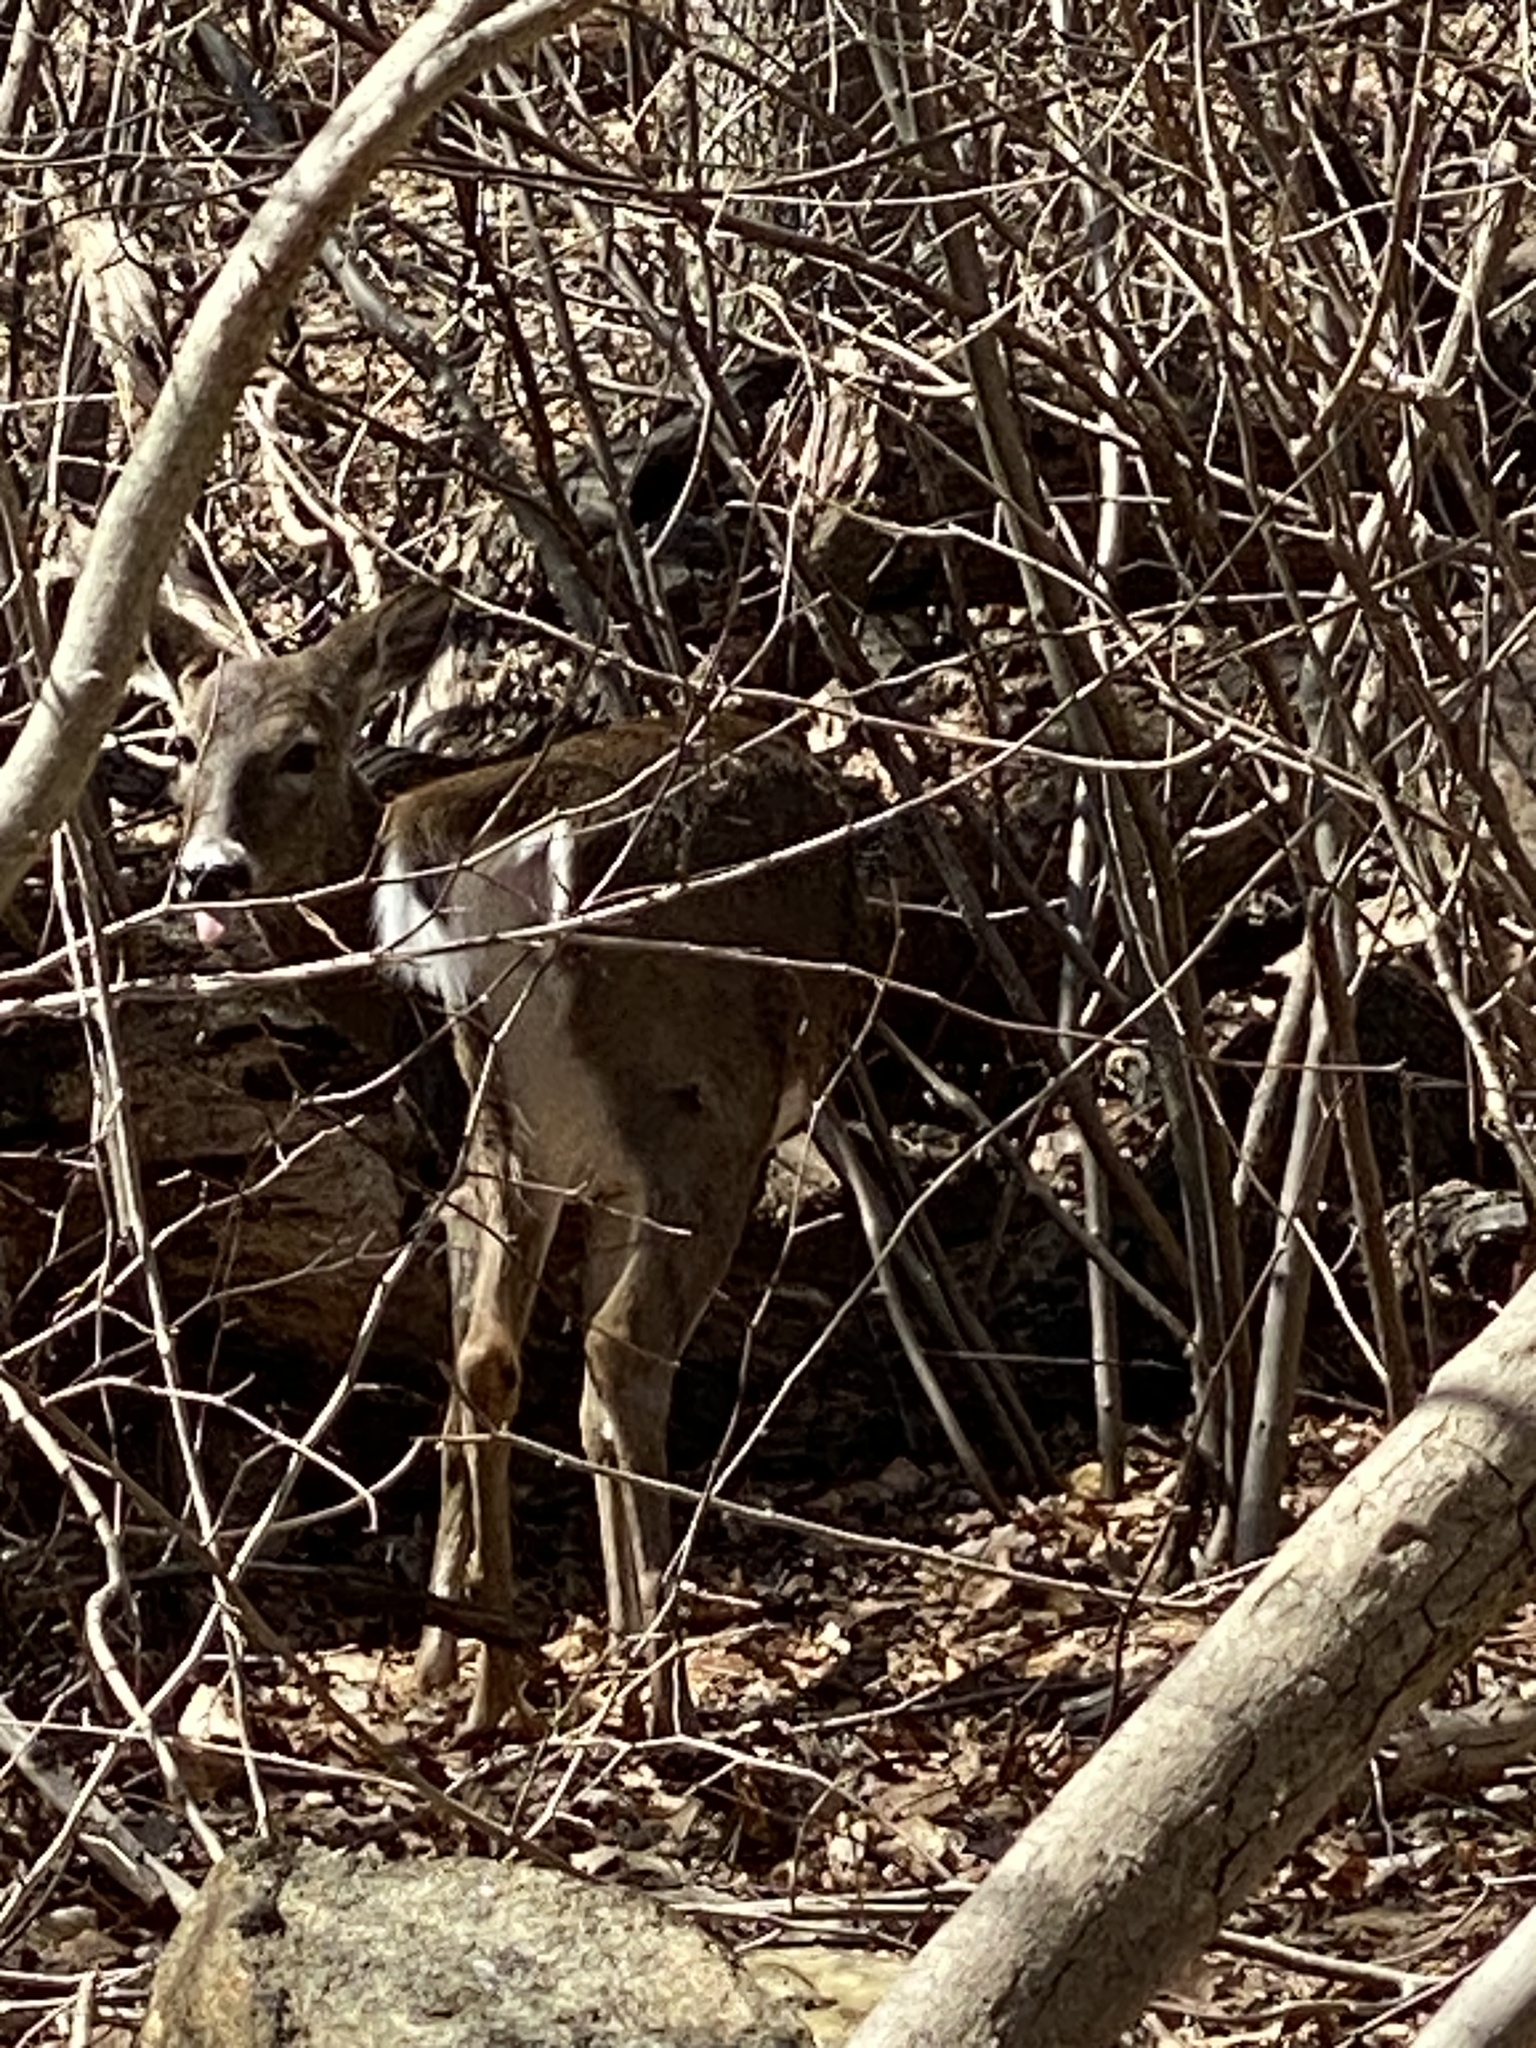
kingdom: Animalia
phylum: Chordata
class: Mammalia
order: Artiodactyla
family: Cervidae
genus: Odocoileus
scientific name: Odocoileus virginianus
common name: White-tailed deer
